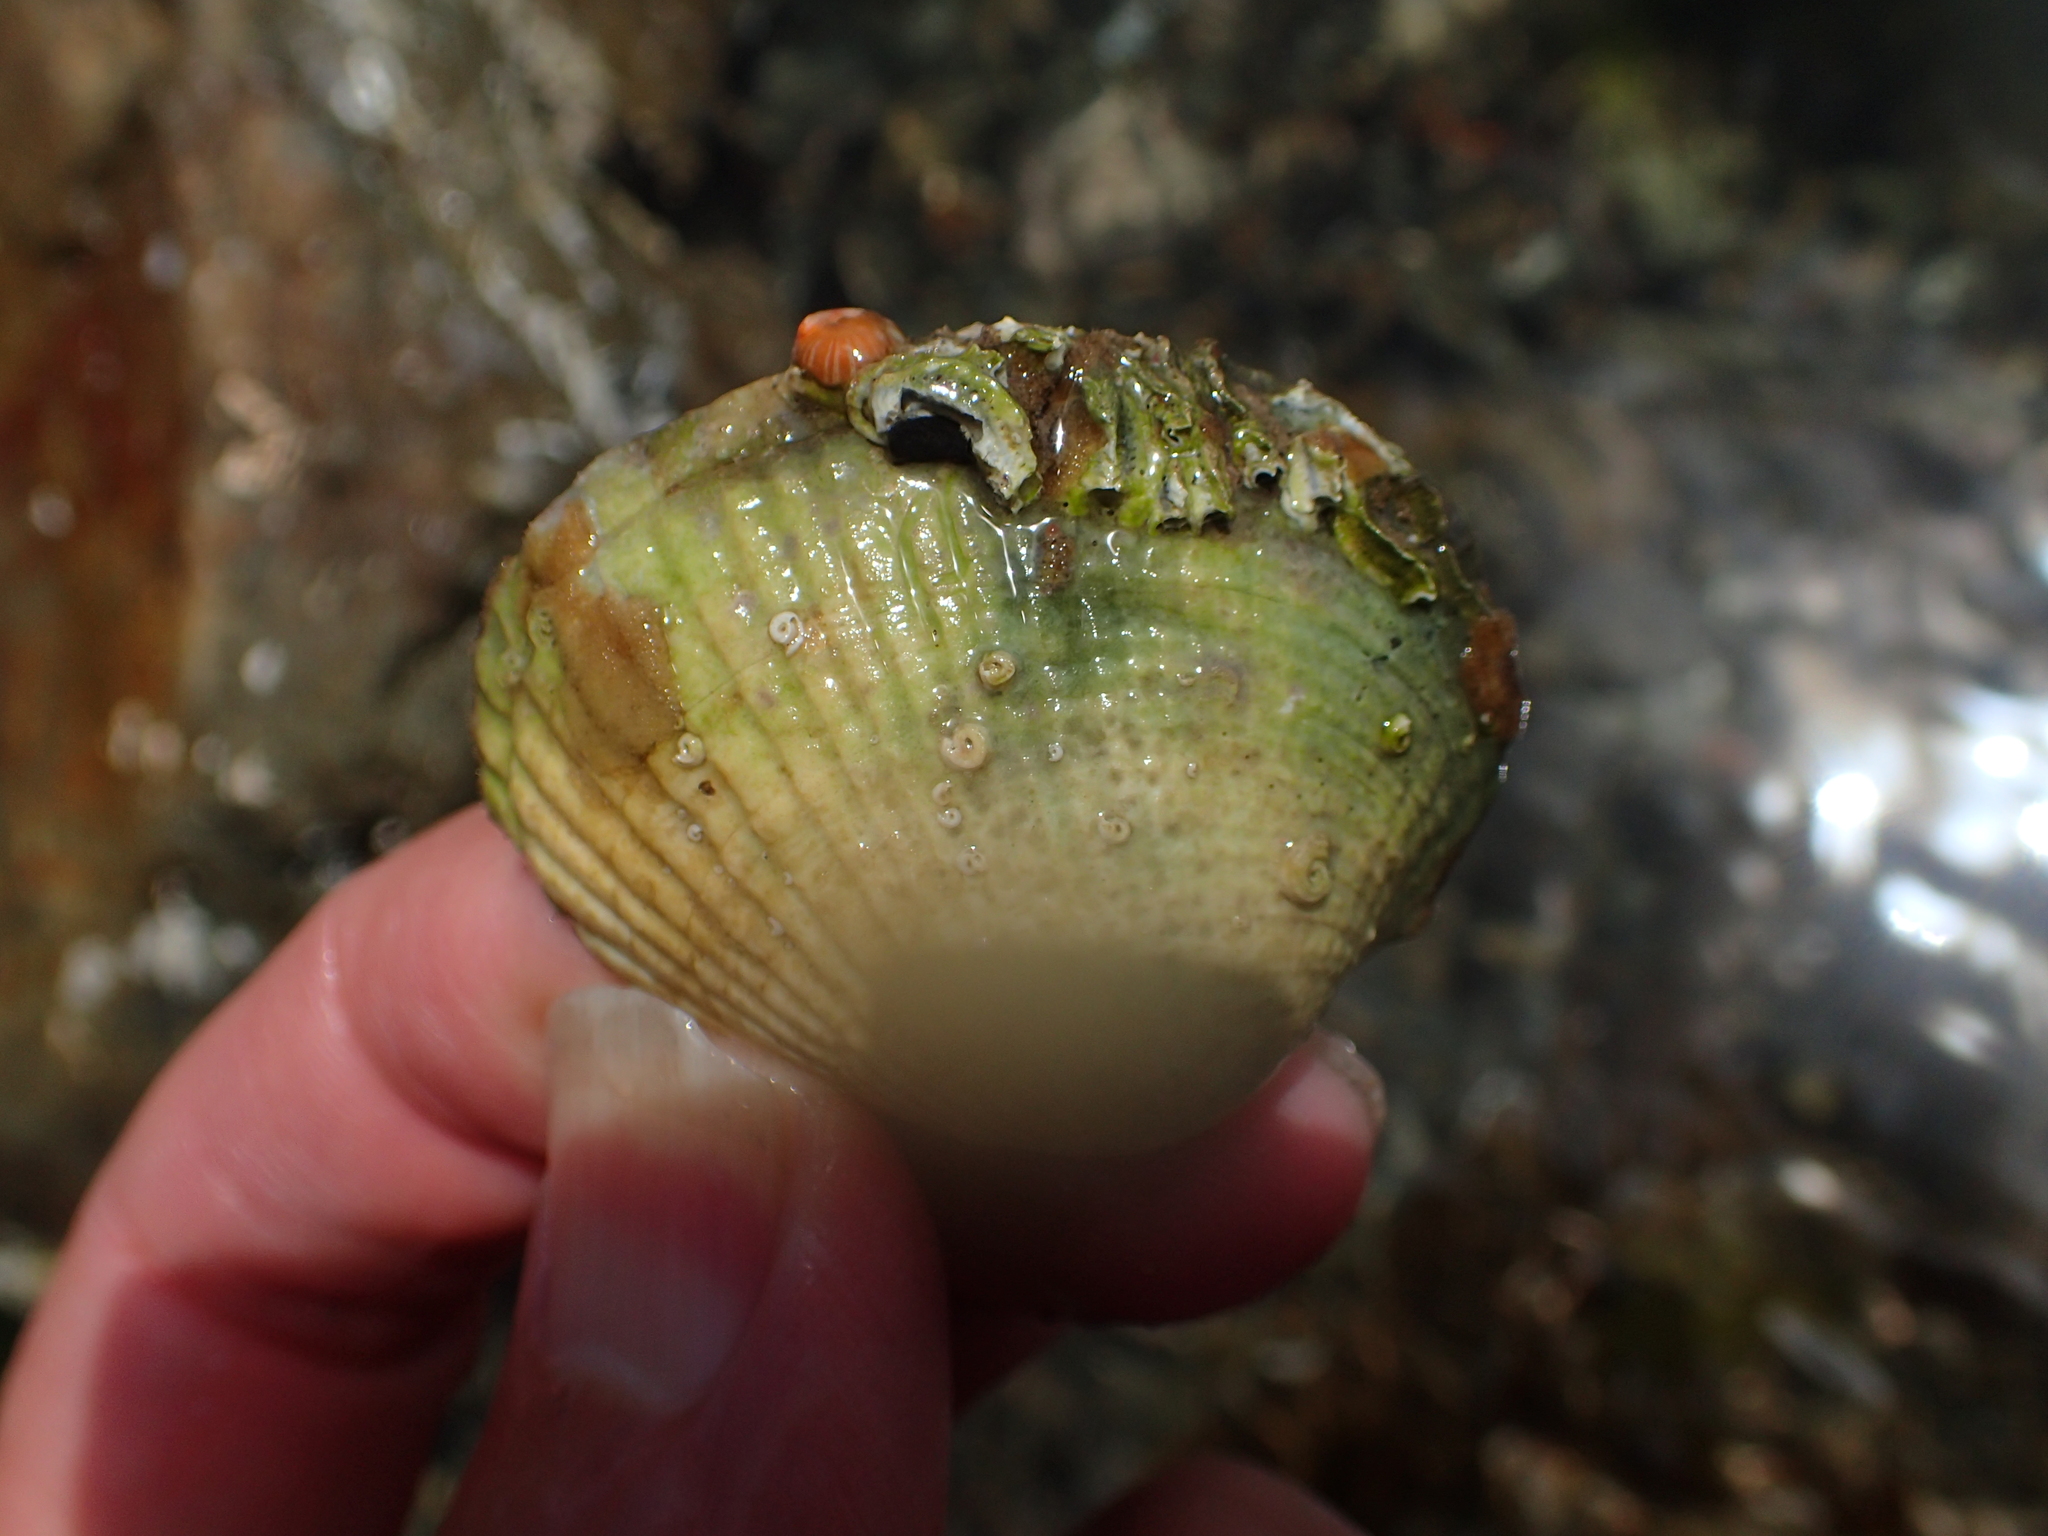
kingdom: Animalia
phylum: Mollusca
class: Bivalvia
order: Venerida
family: Veneridae
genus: Leukoma
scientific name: Leukoma crassicosta
